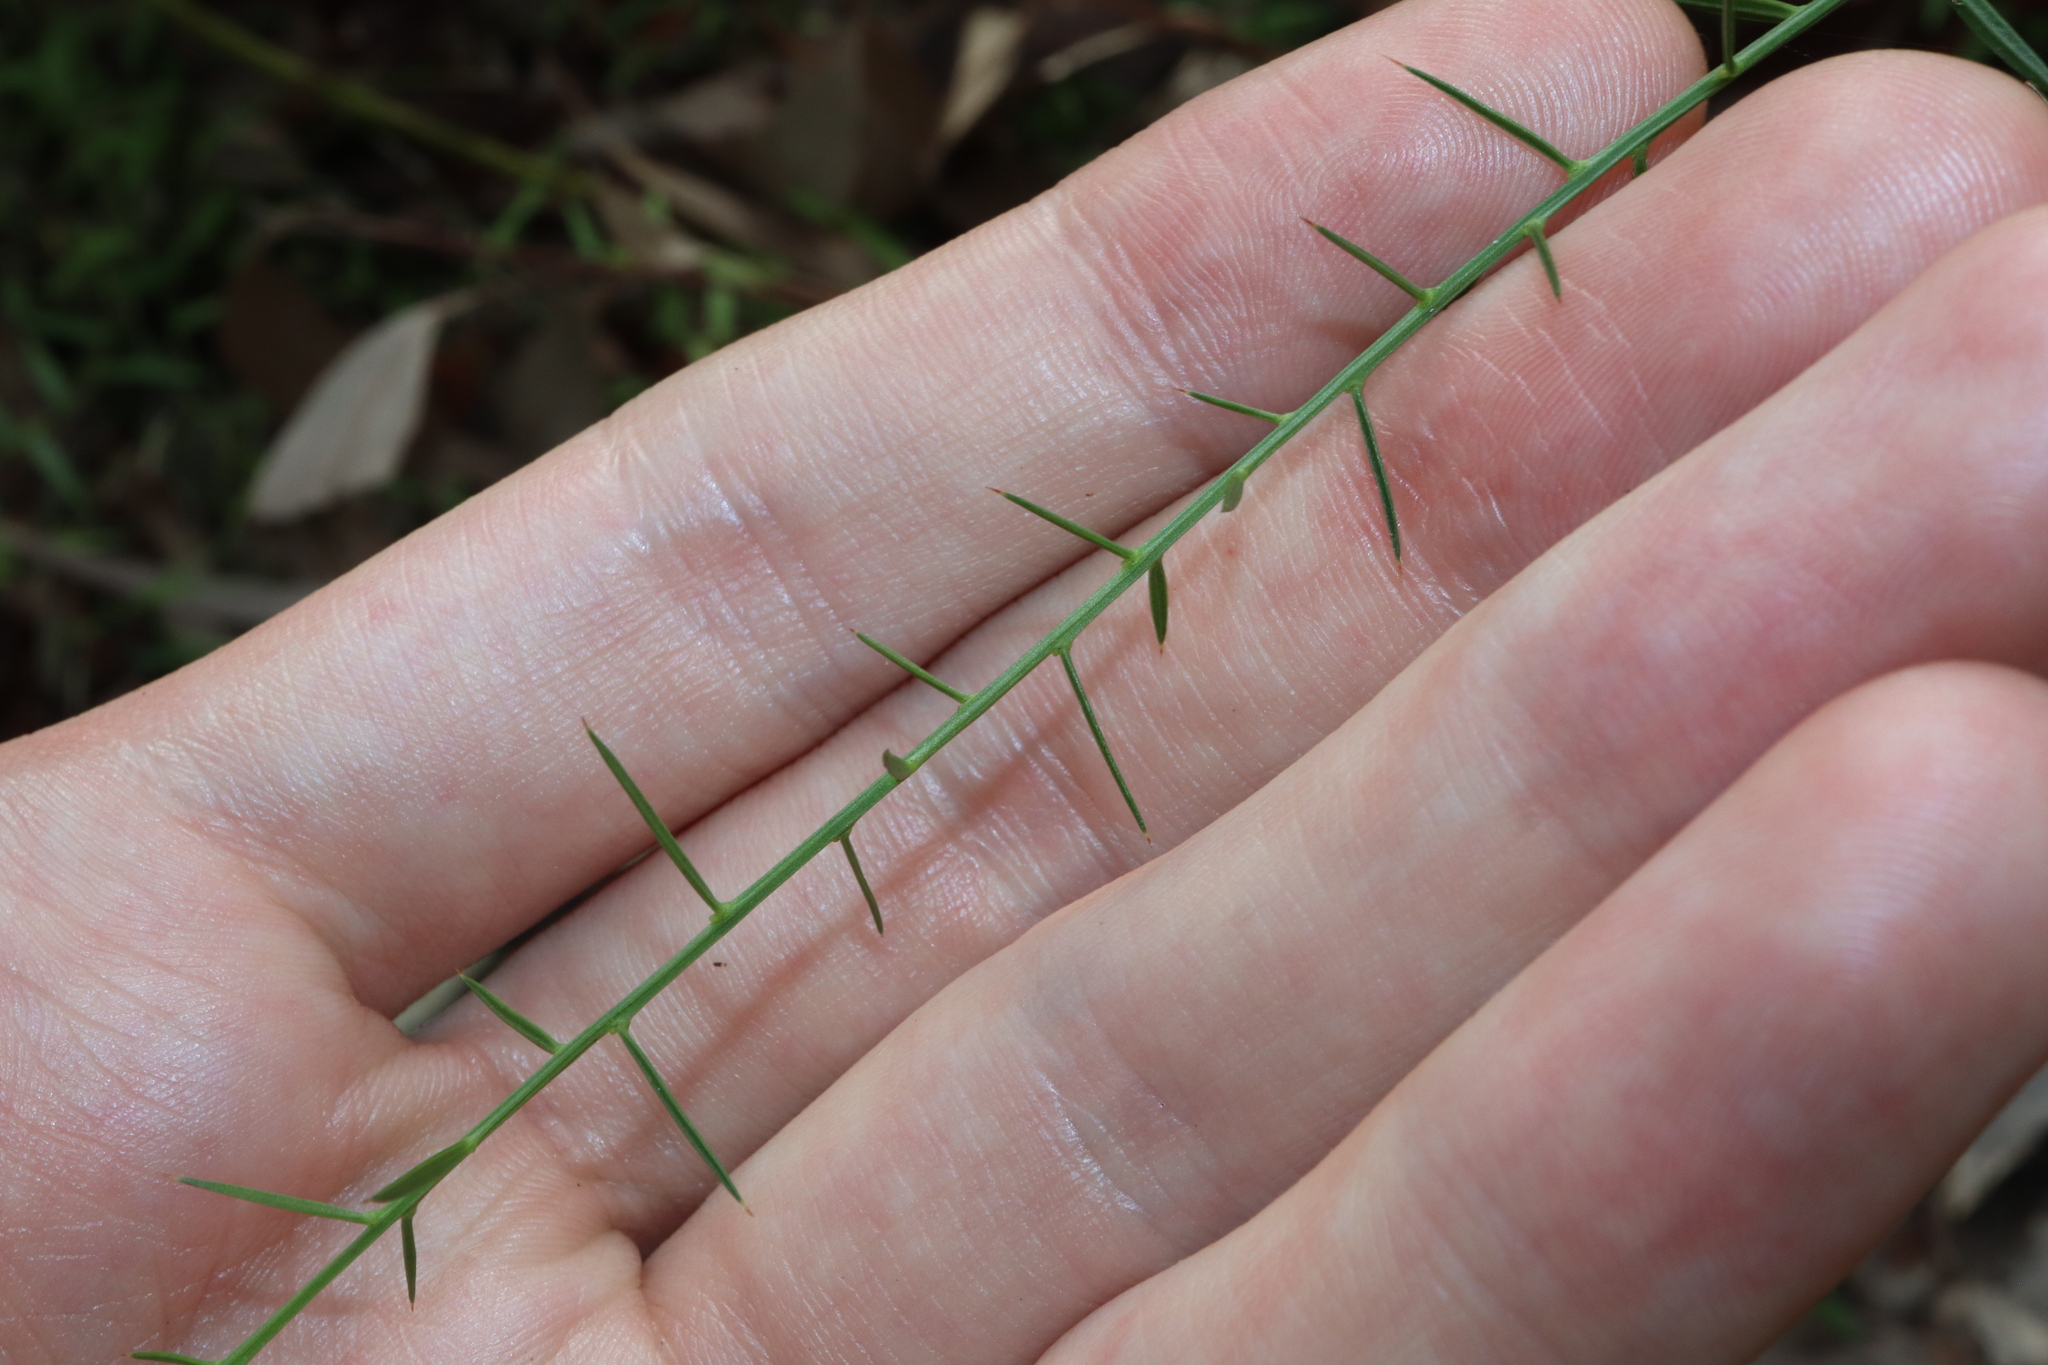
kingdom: Plantae
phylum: Tracheophyta
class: Magnoliopsida
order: Fabales
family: Fabaceae
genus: Daviesia
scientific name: Daviesia ulicifolia
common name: Gorse bitter-pea
